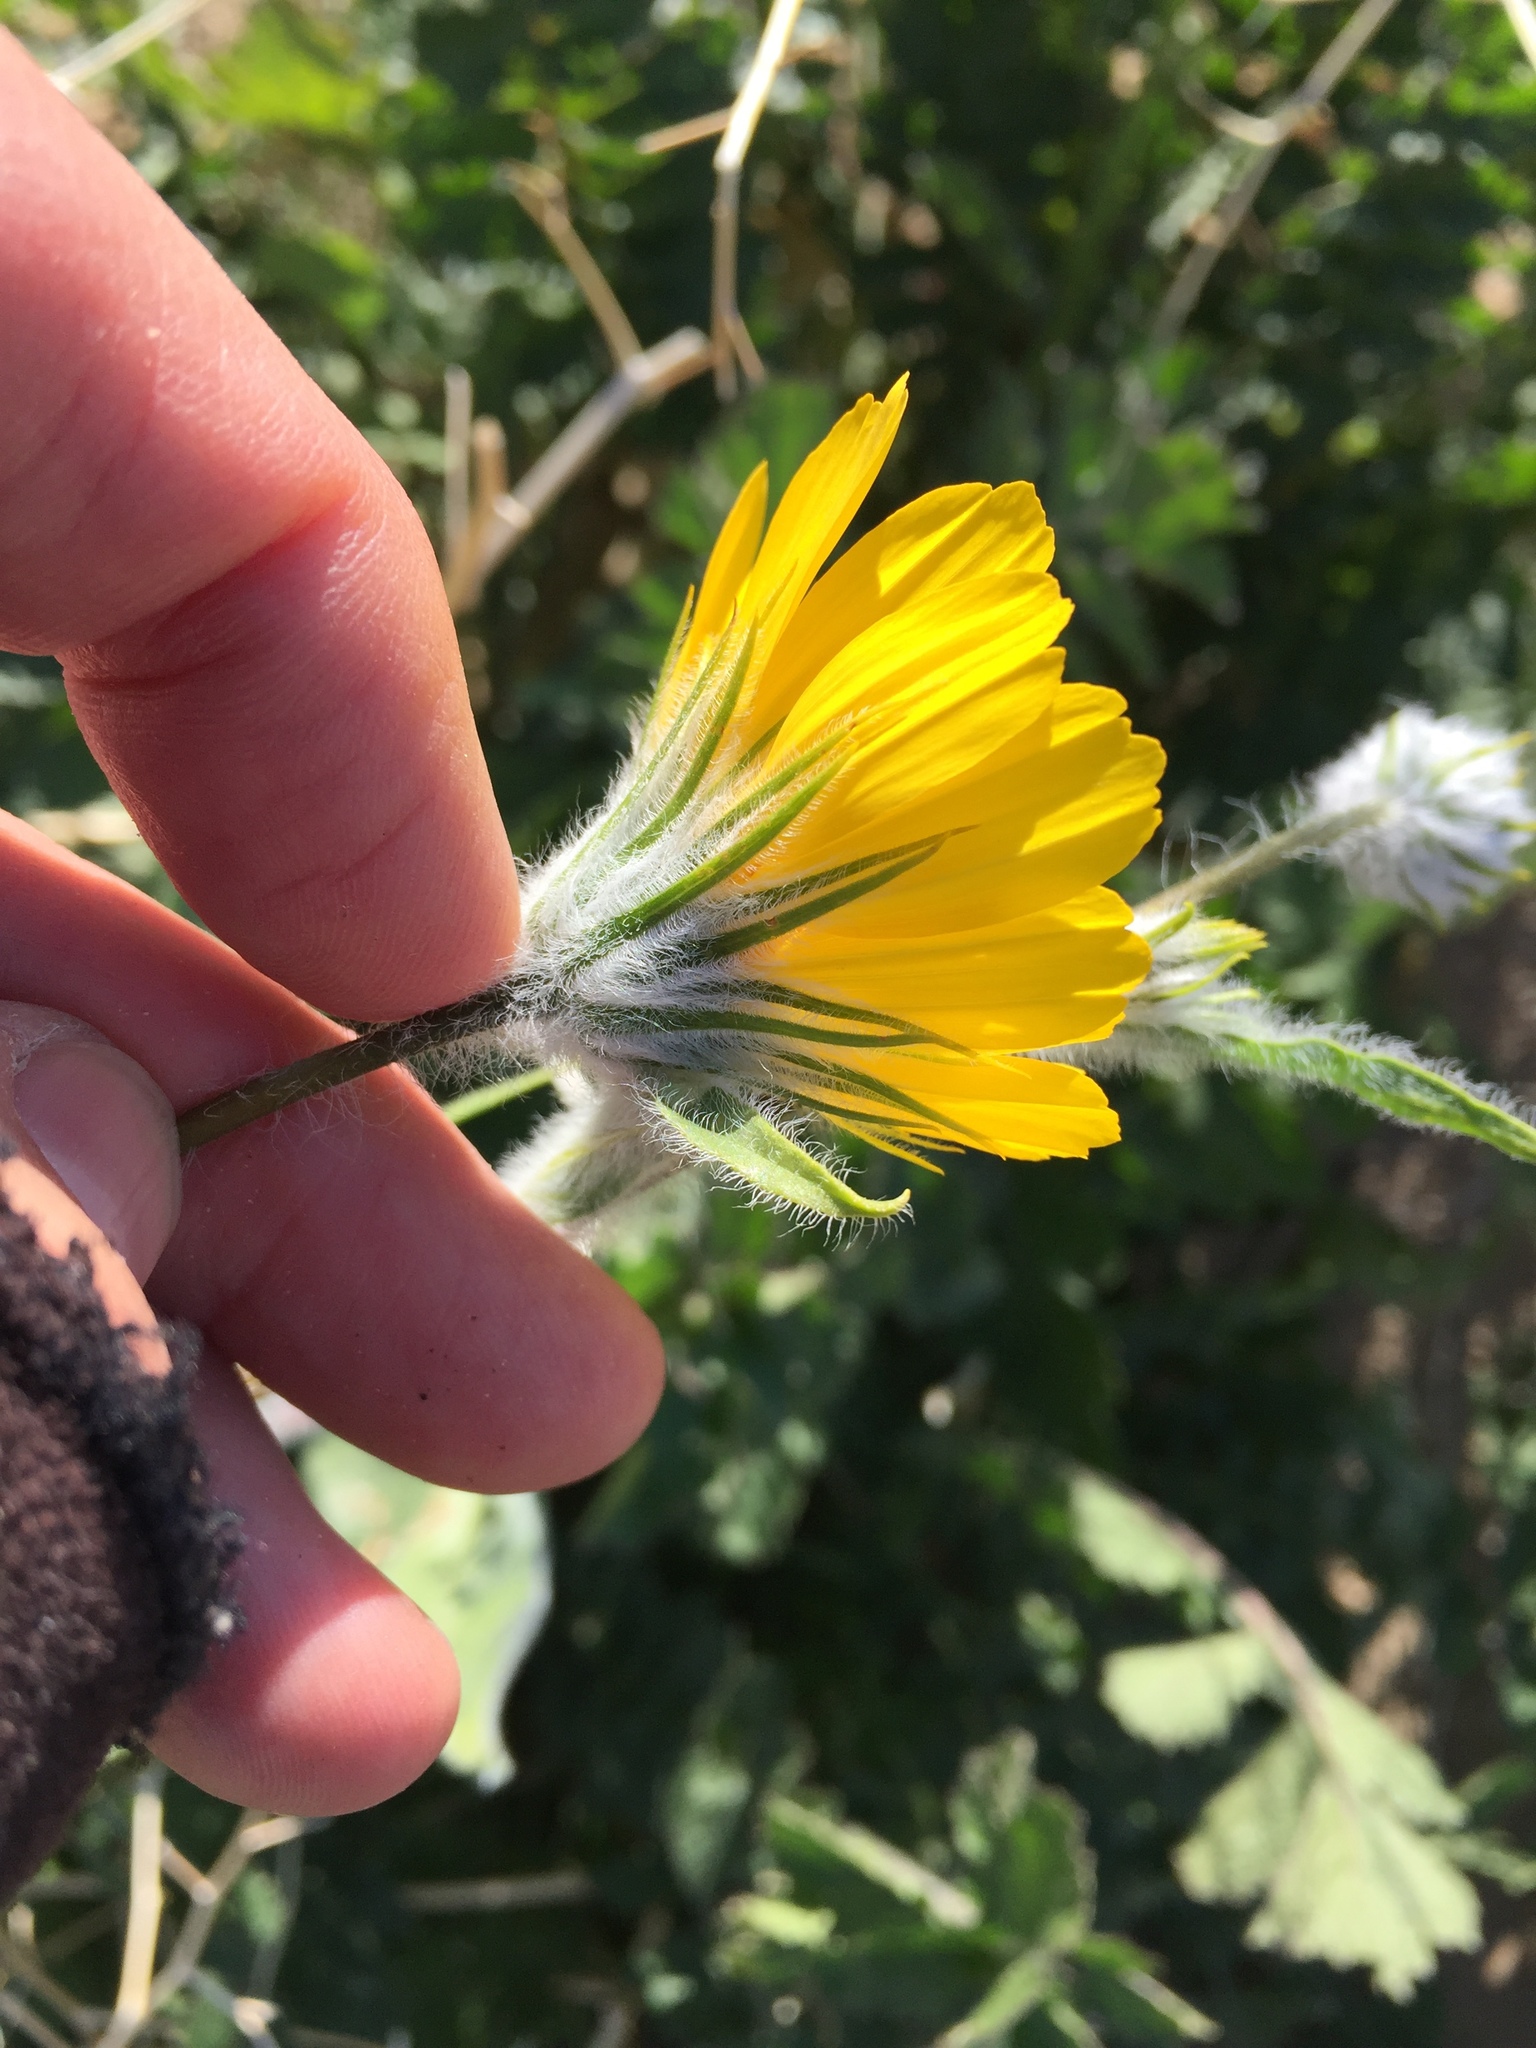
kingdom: Plantae
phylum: Tracheophyta
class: Magnoliopsida
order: Asterales
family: Asteraceae
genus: Geraea
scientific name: Geraea canescens
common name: Desert-gold
